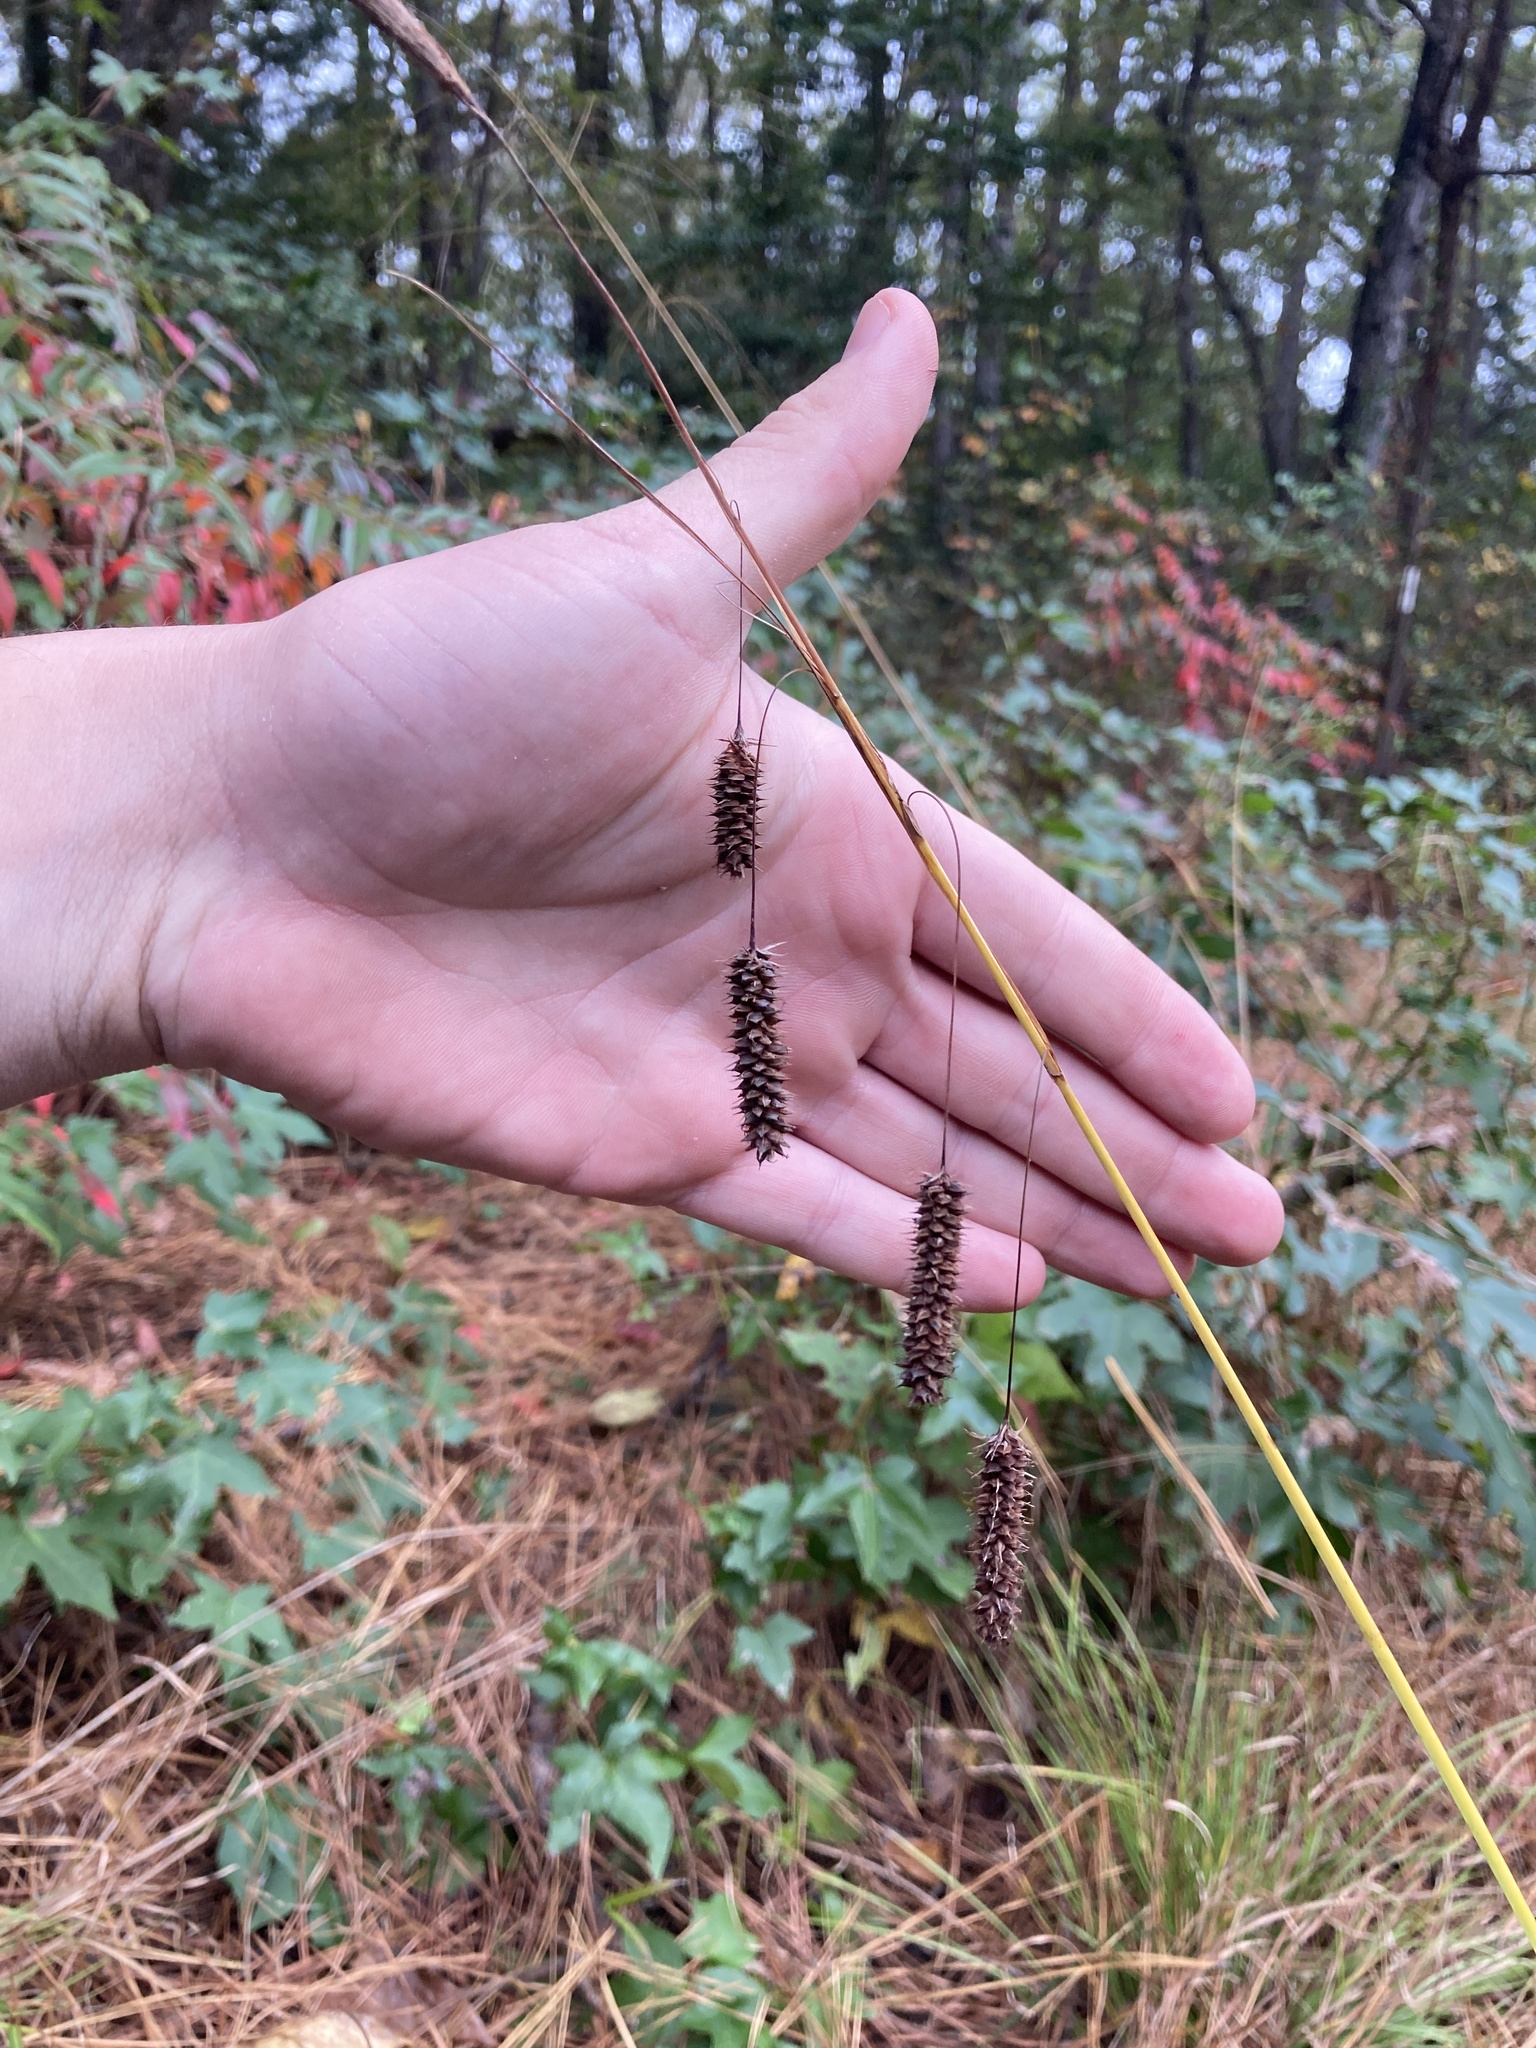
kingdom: Plantae
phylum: Tracheophyta
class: Liliopsida
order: Poales
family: Cyperaceae
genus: Carex
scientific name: Carex glaucescens
